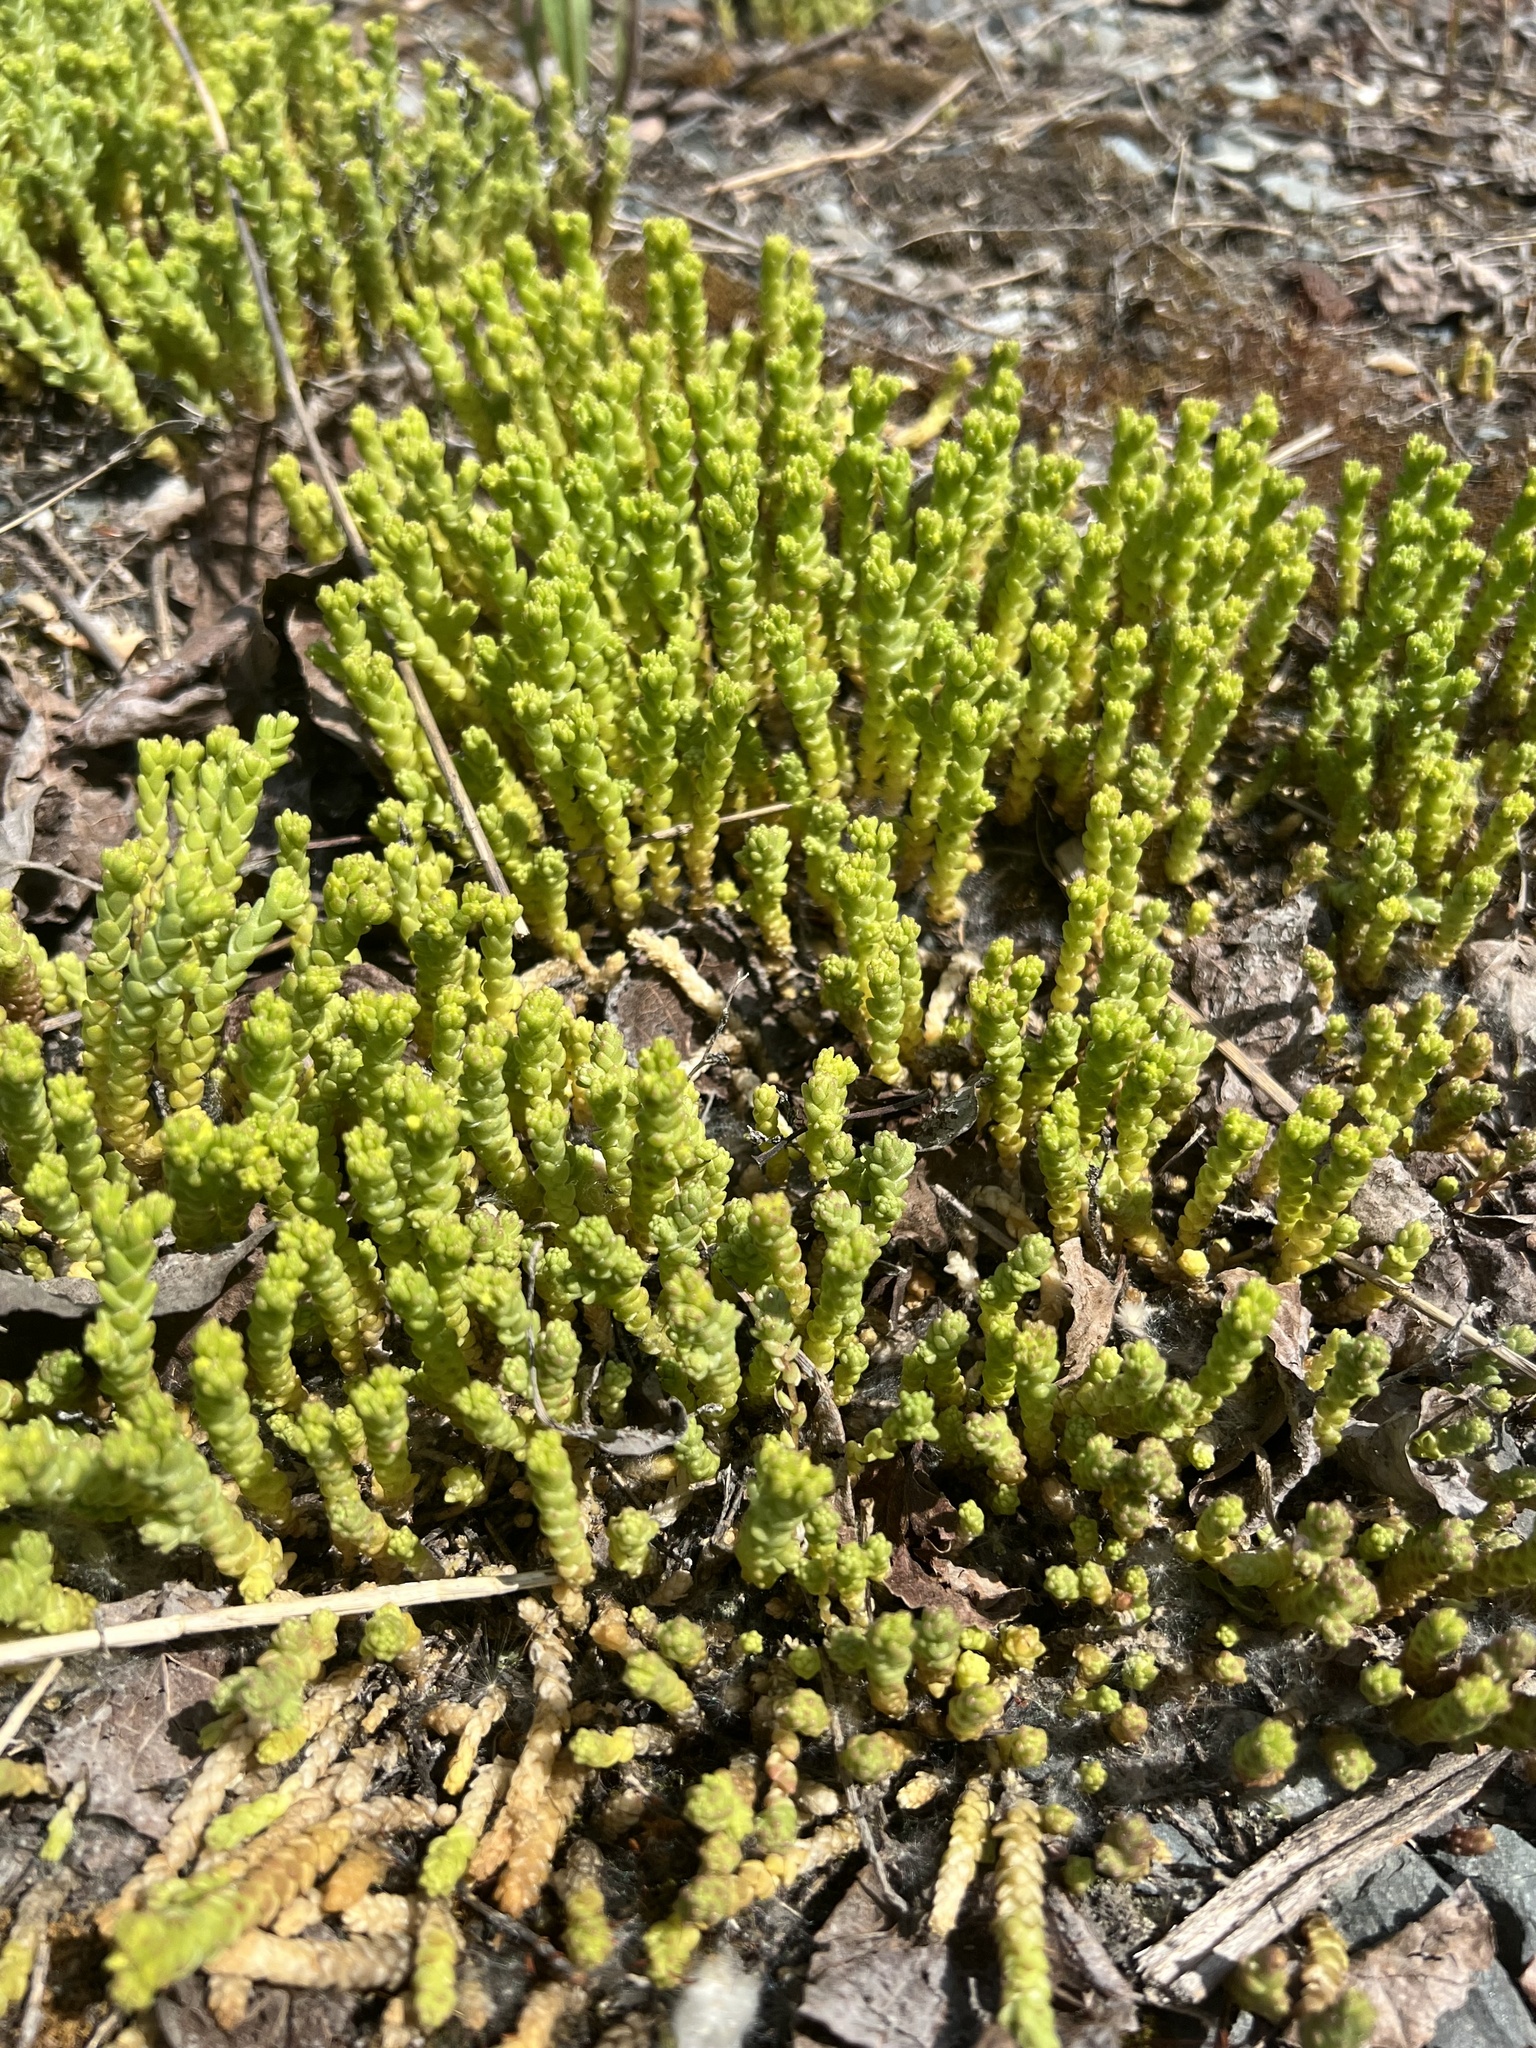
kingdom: Plantae
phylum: Tracheophyta
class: Magnoliopsida
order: Saxifragales
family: Crassulaceae
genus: Sedum
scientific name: Sedum acre
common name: Biting stonecrop
